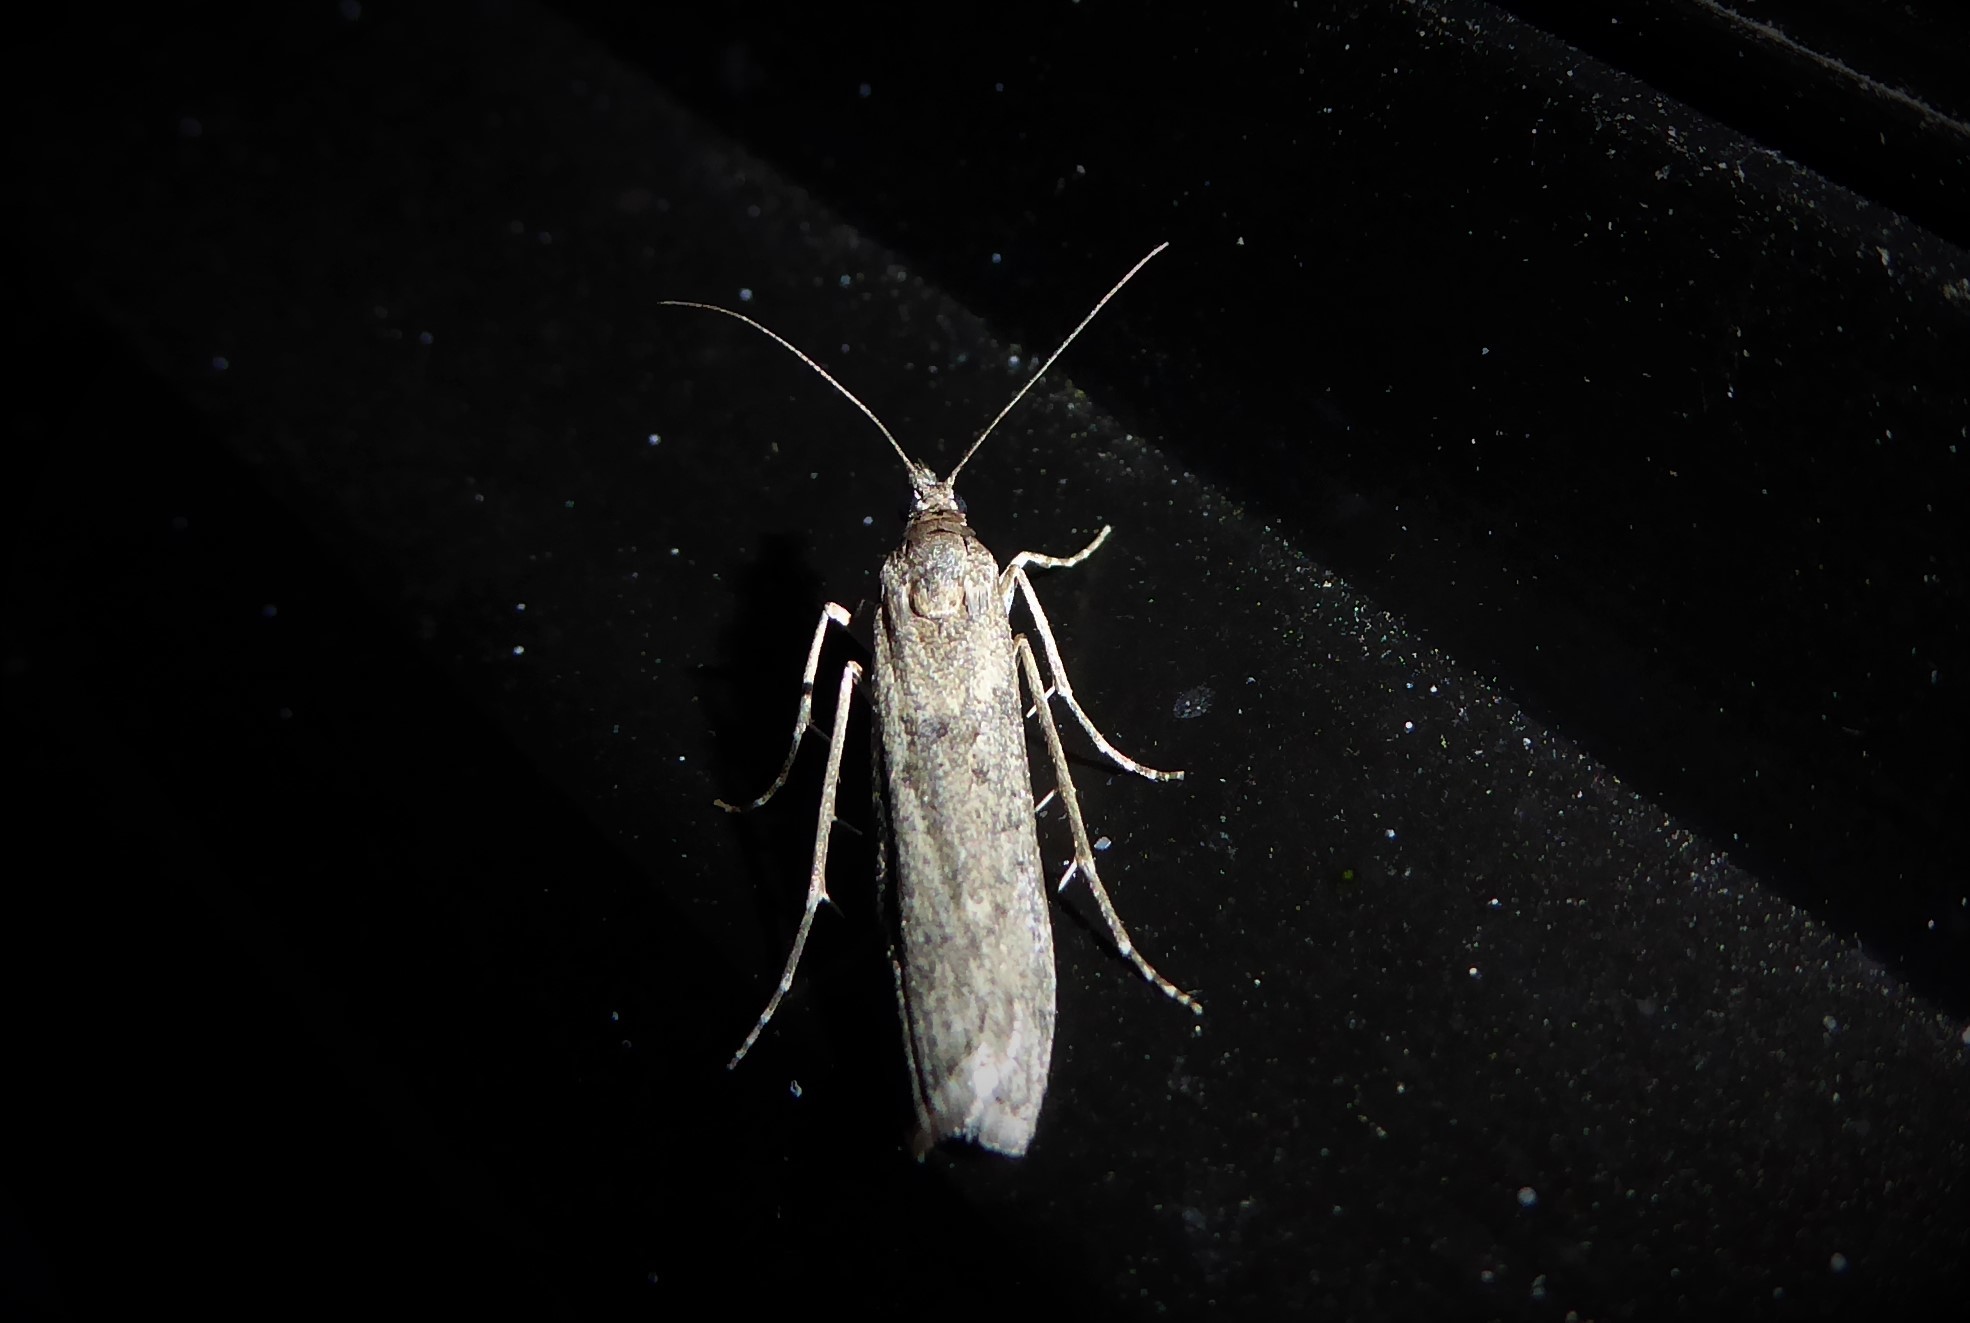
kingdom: Animalia
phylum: Arthropoda
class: Insecta
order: Lepidoptera
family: Crambidae
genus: Eudonia
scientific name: Eudonia leptalea
